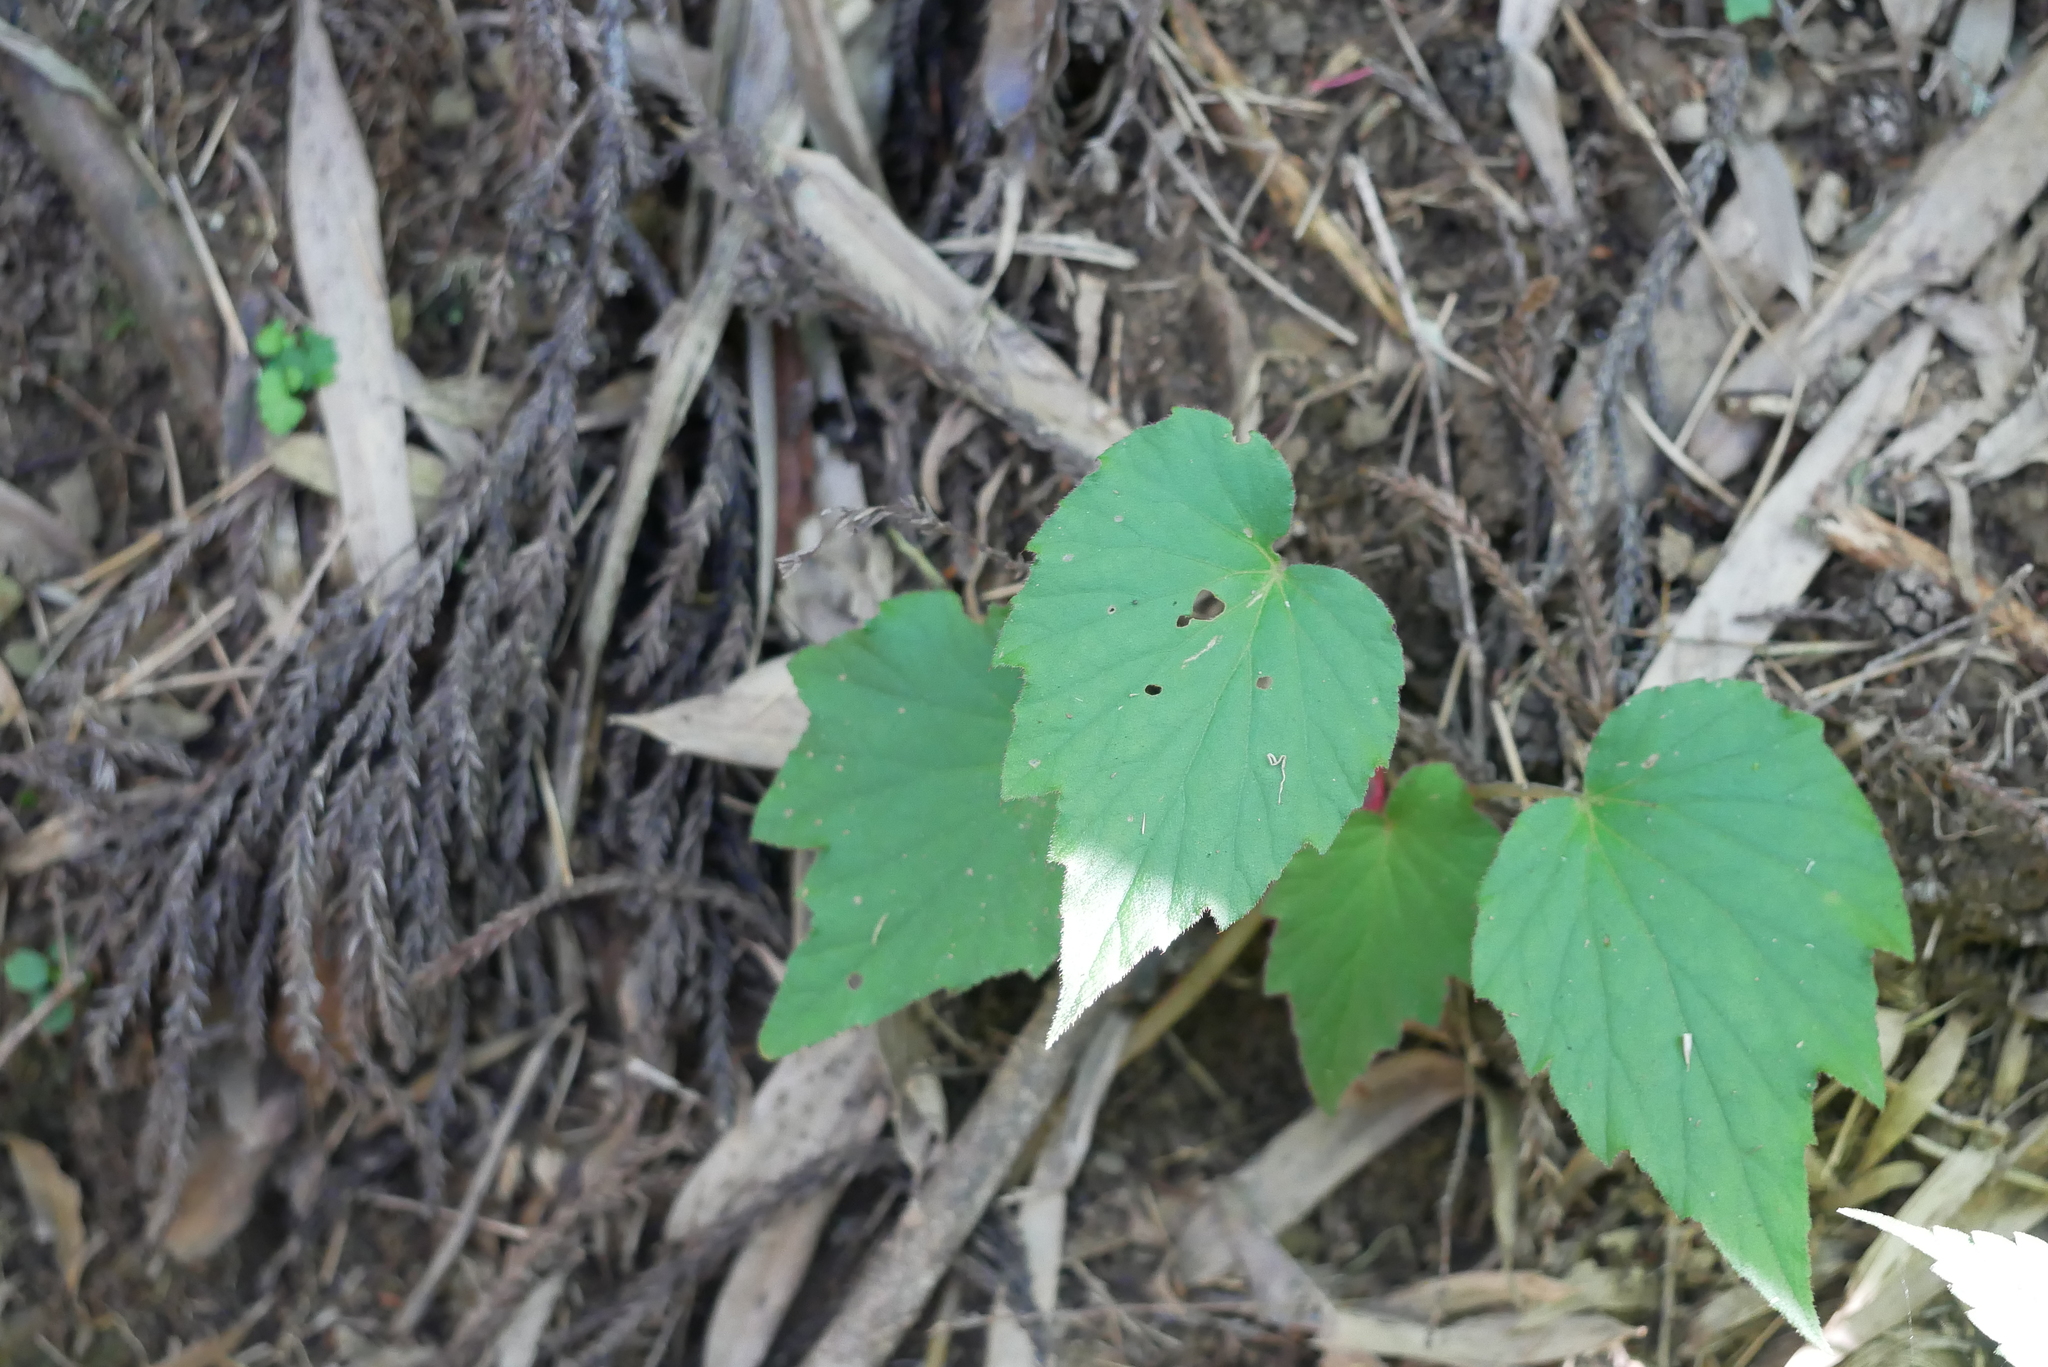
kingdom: Plantae
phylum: Tracheophyta
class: Magnoliopsida
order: Cucurbitales
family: Begoniaceae
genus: Begonia
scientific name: Begonia palmata
